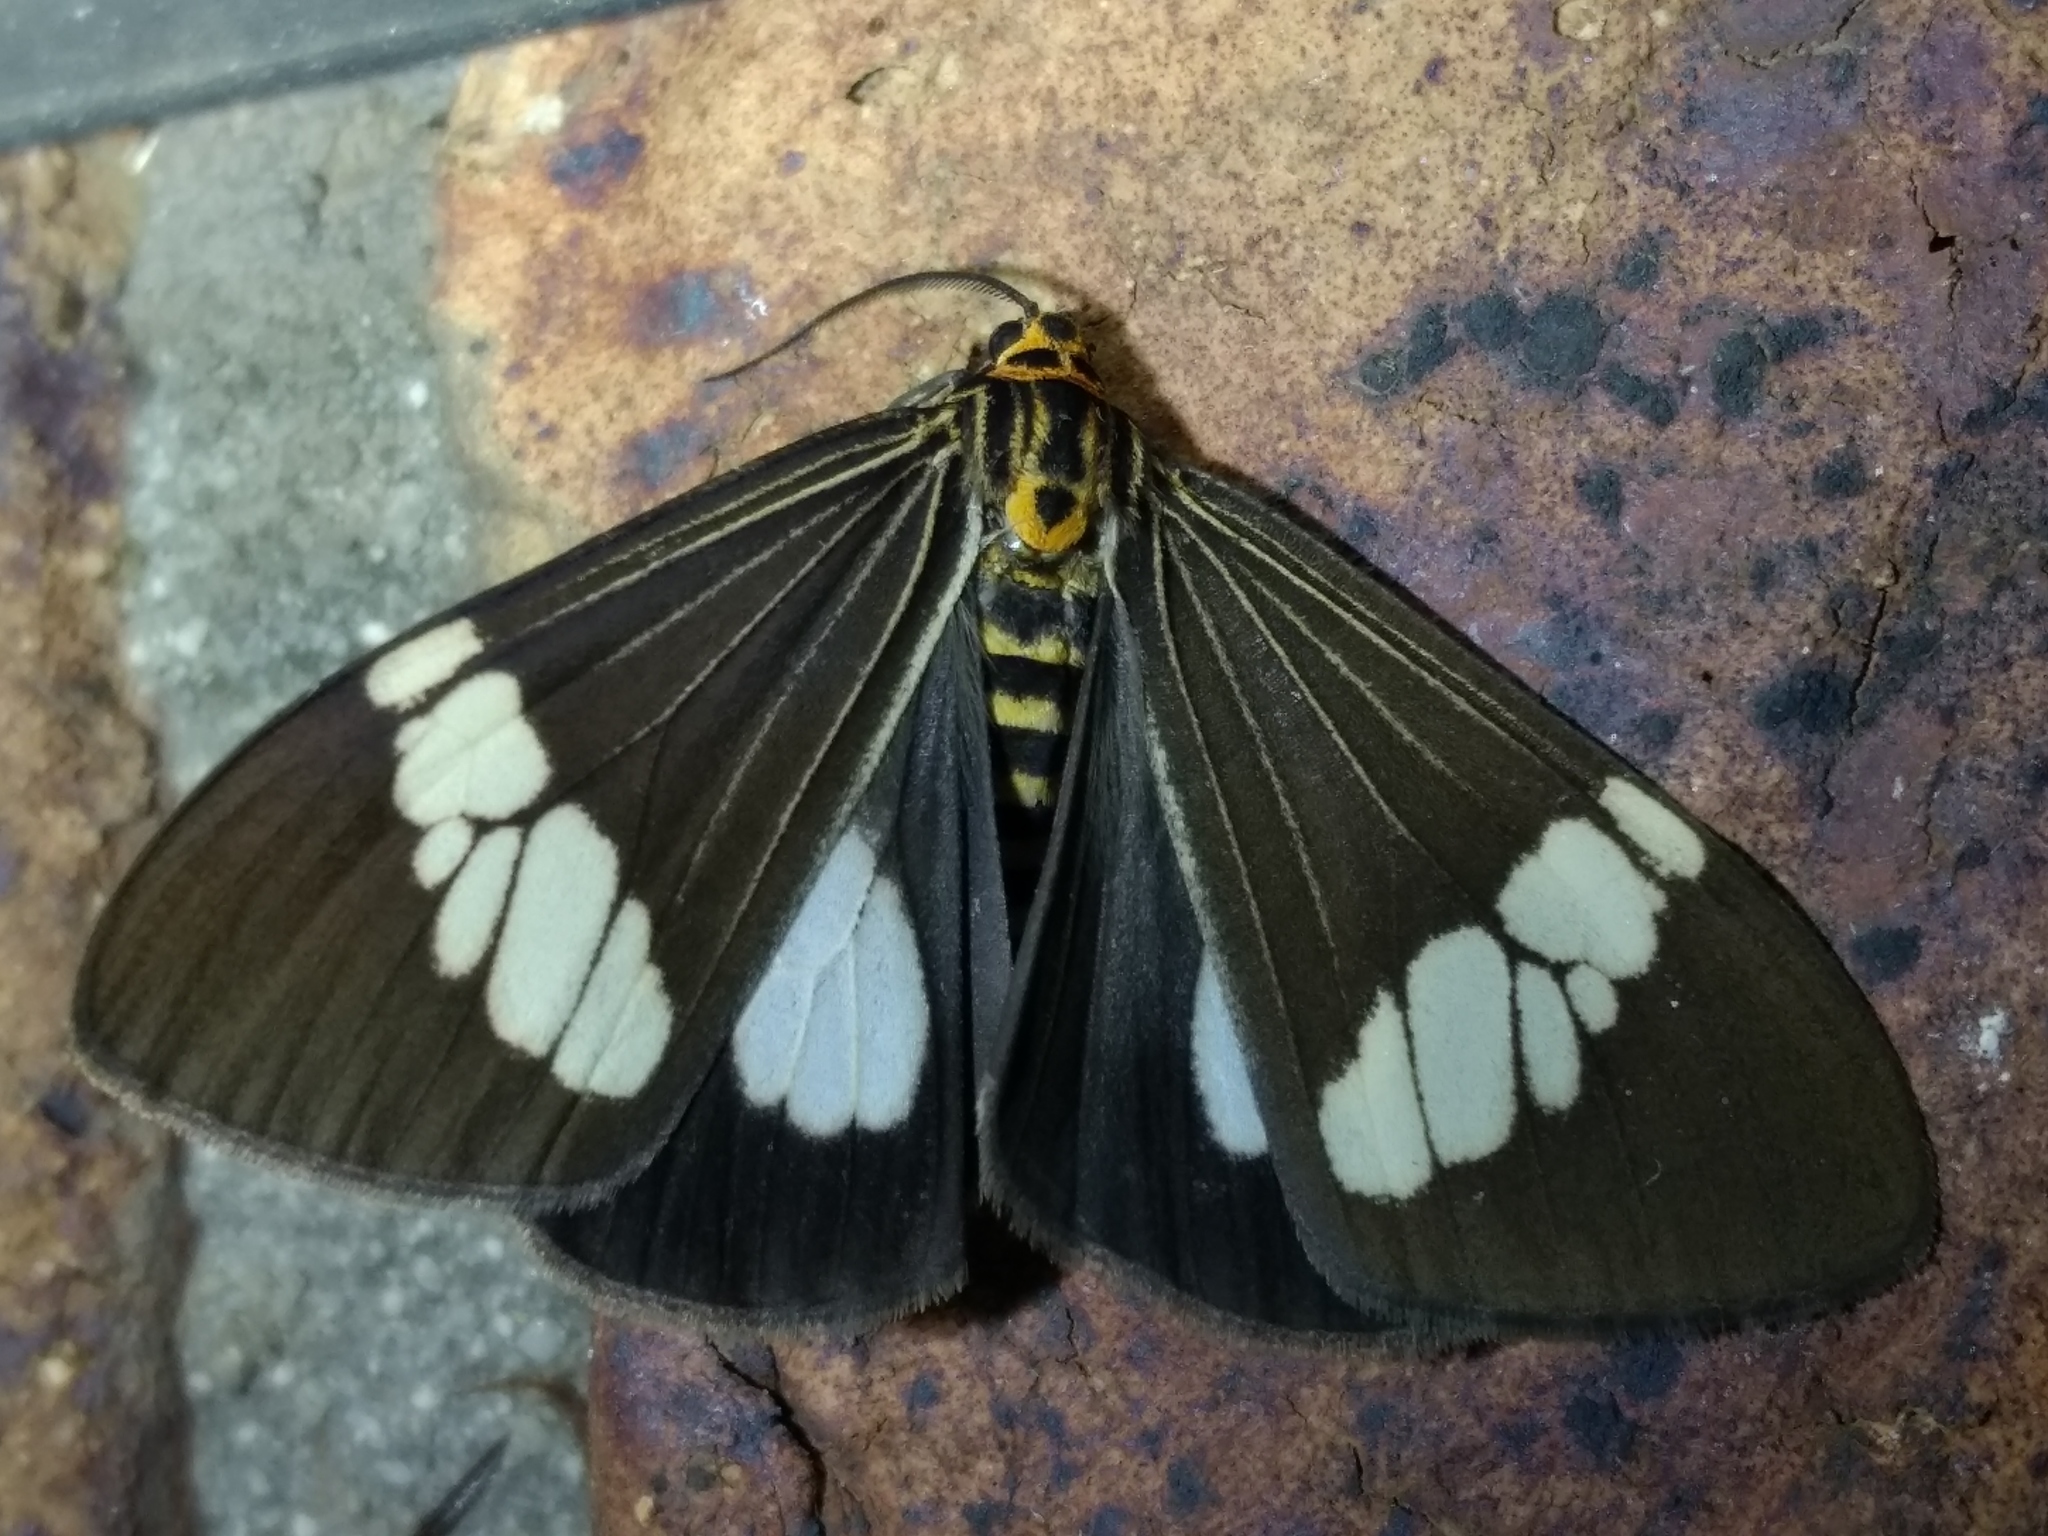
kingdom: Animalia
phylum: Arthropoda
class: Insecta
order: Lepidoptera
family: Erebidae
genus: Nyctemera
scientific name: Nyctemera baulus
